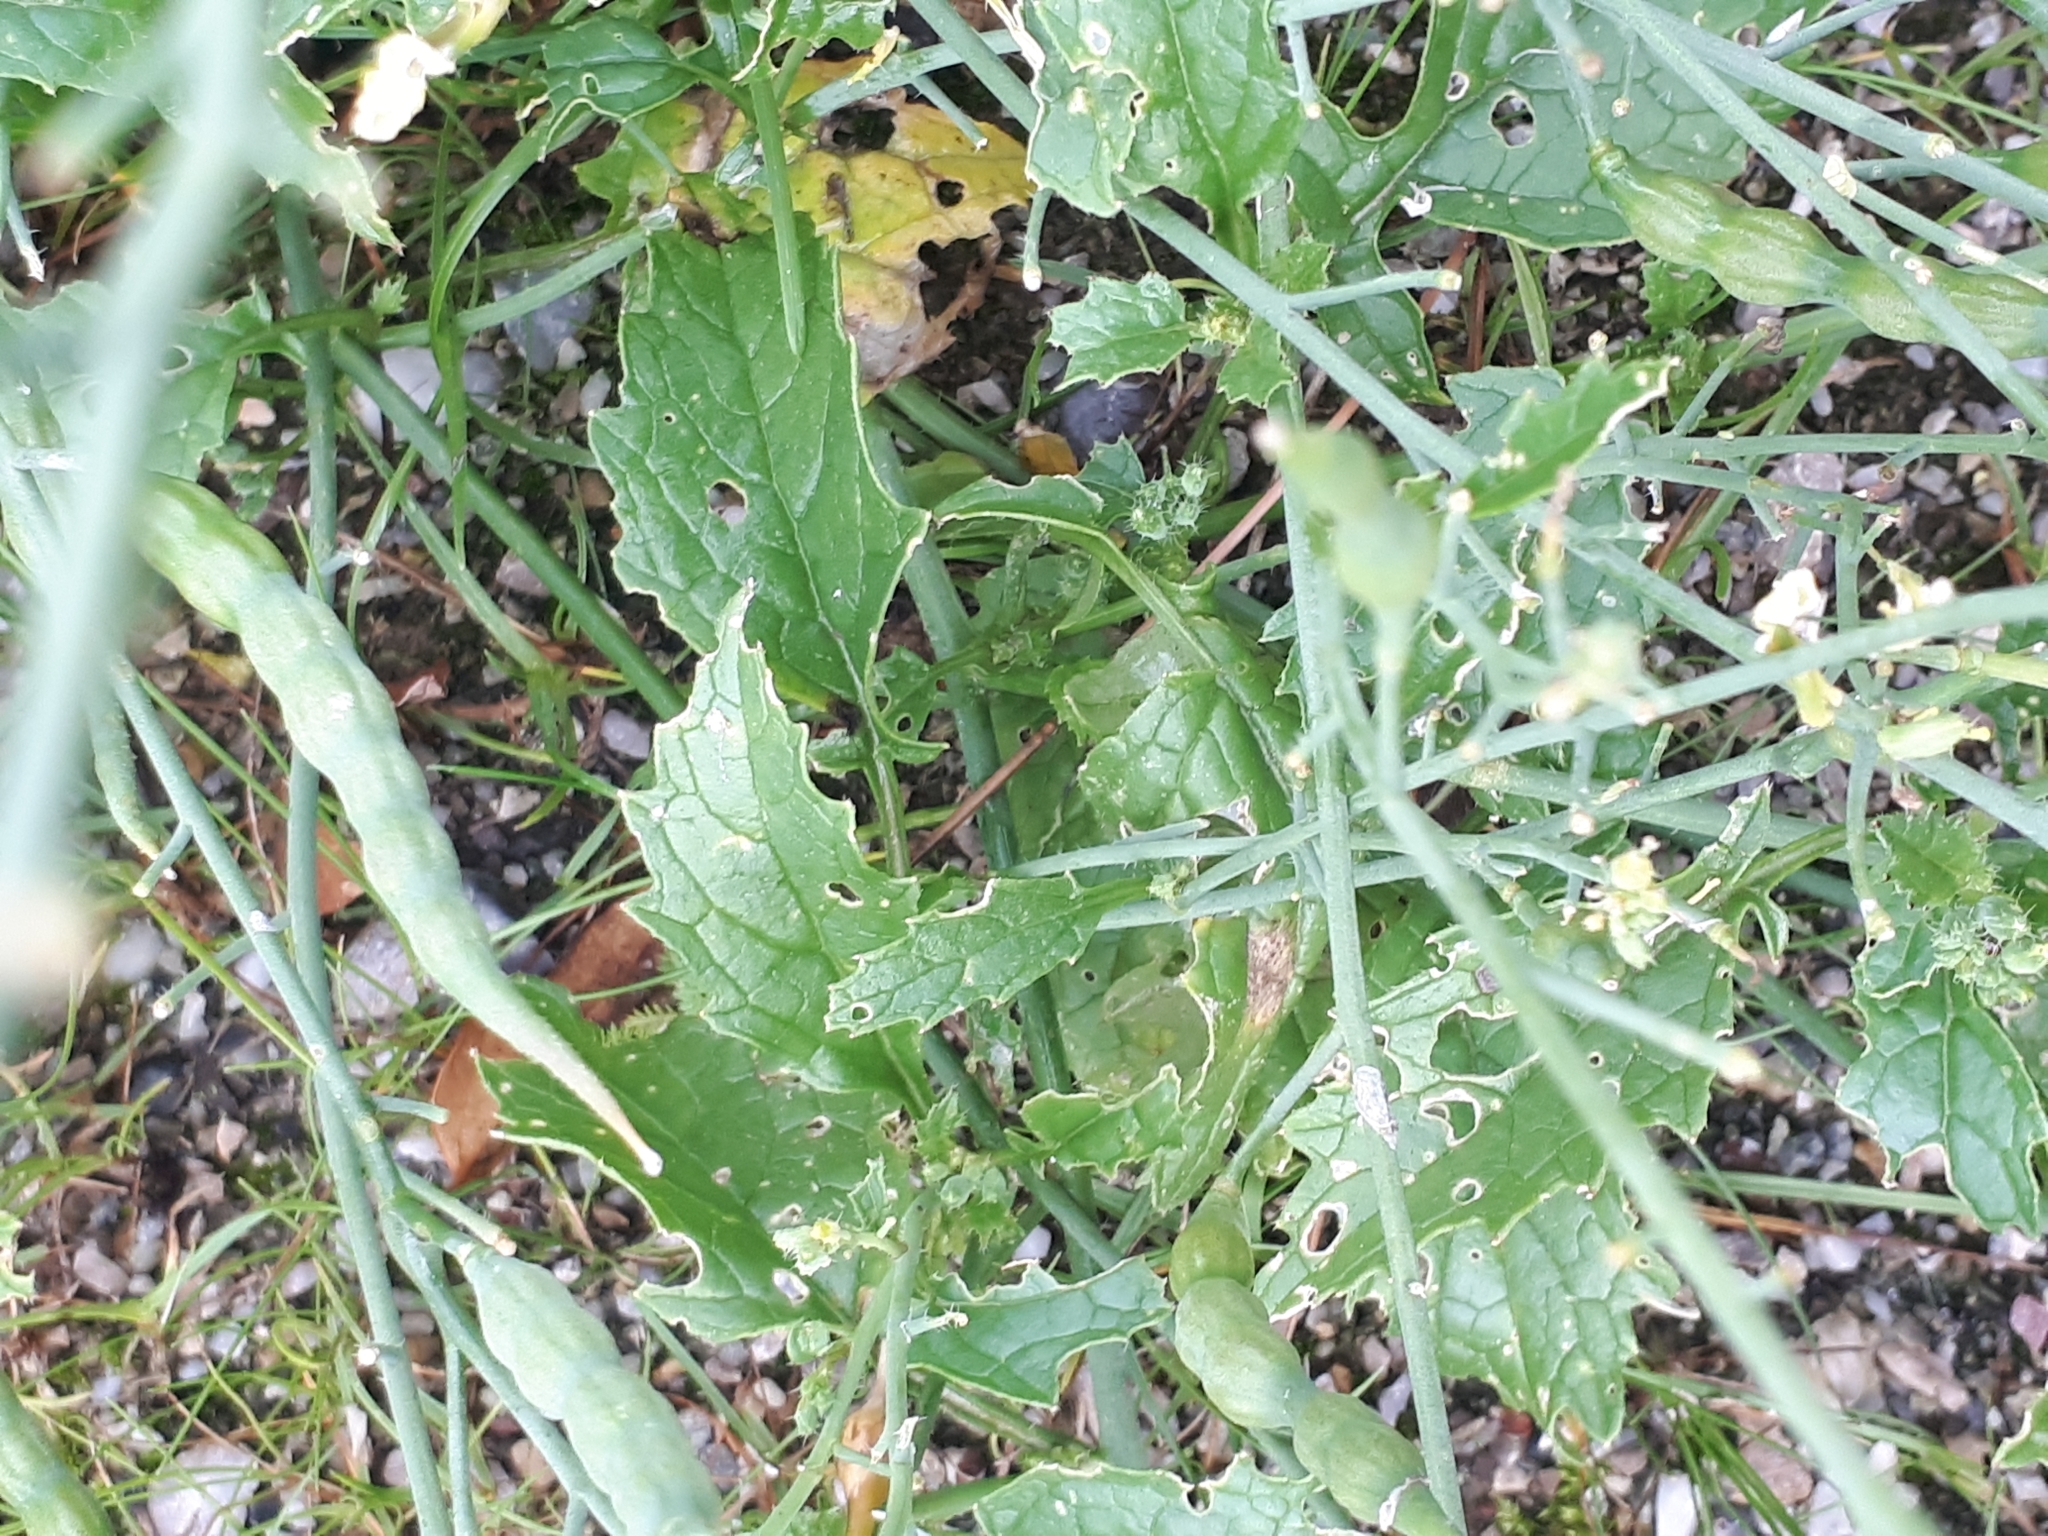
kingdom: Plantae
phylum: Tracheophyta
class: Magnoliopsida
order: Brassicales
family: Brassicaceae
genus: Raphanus
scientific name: Raphanus raphanistrum
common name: Wild radish
